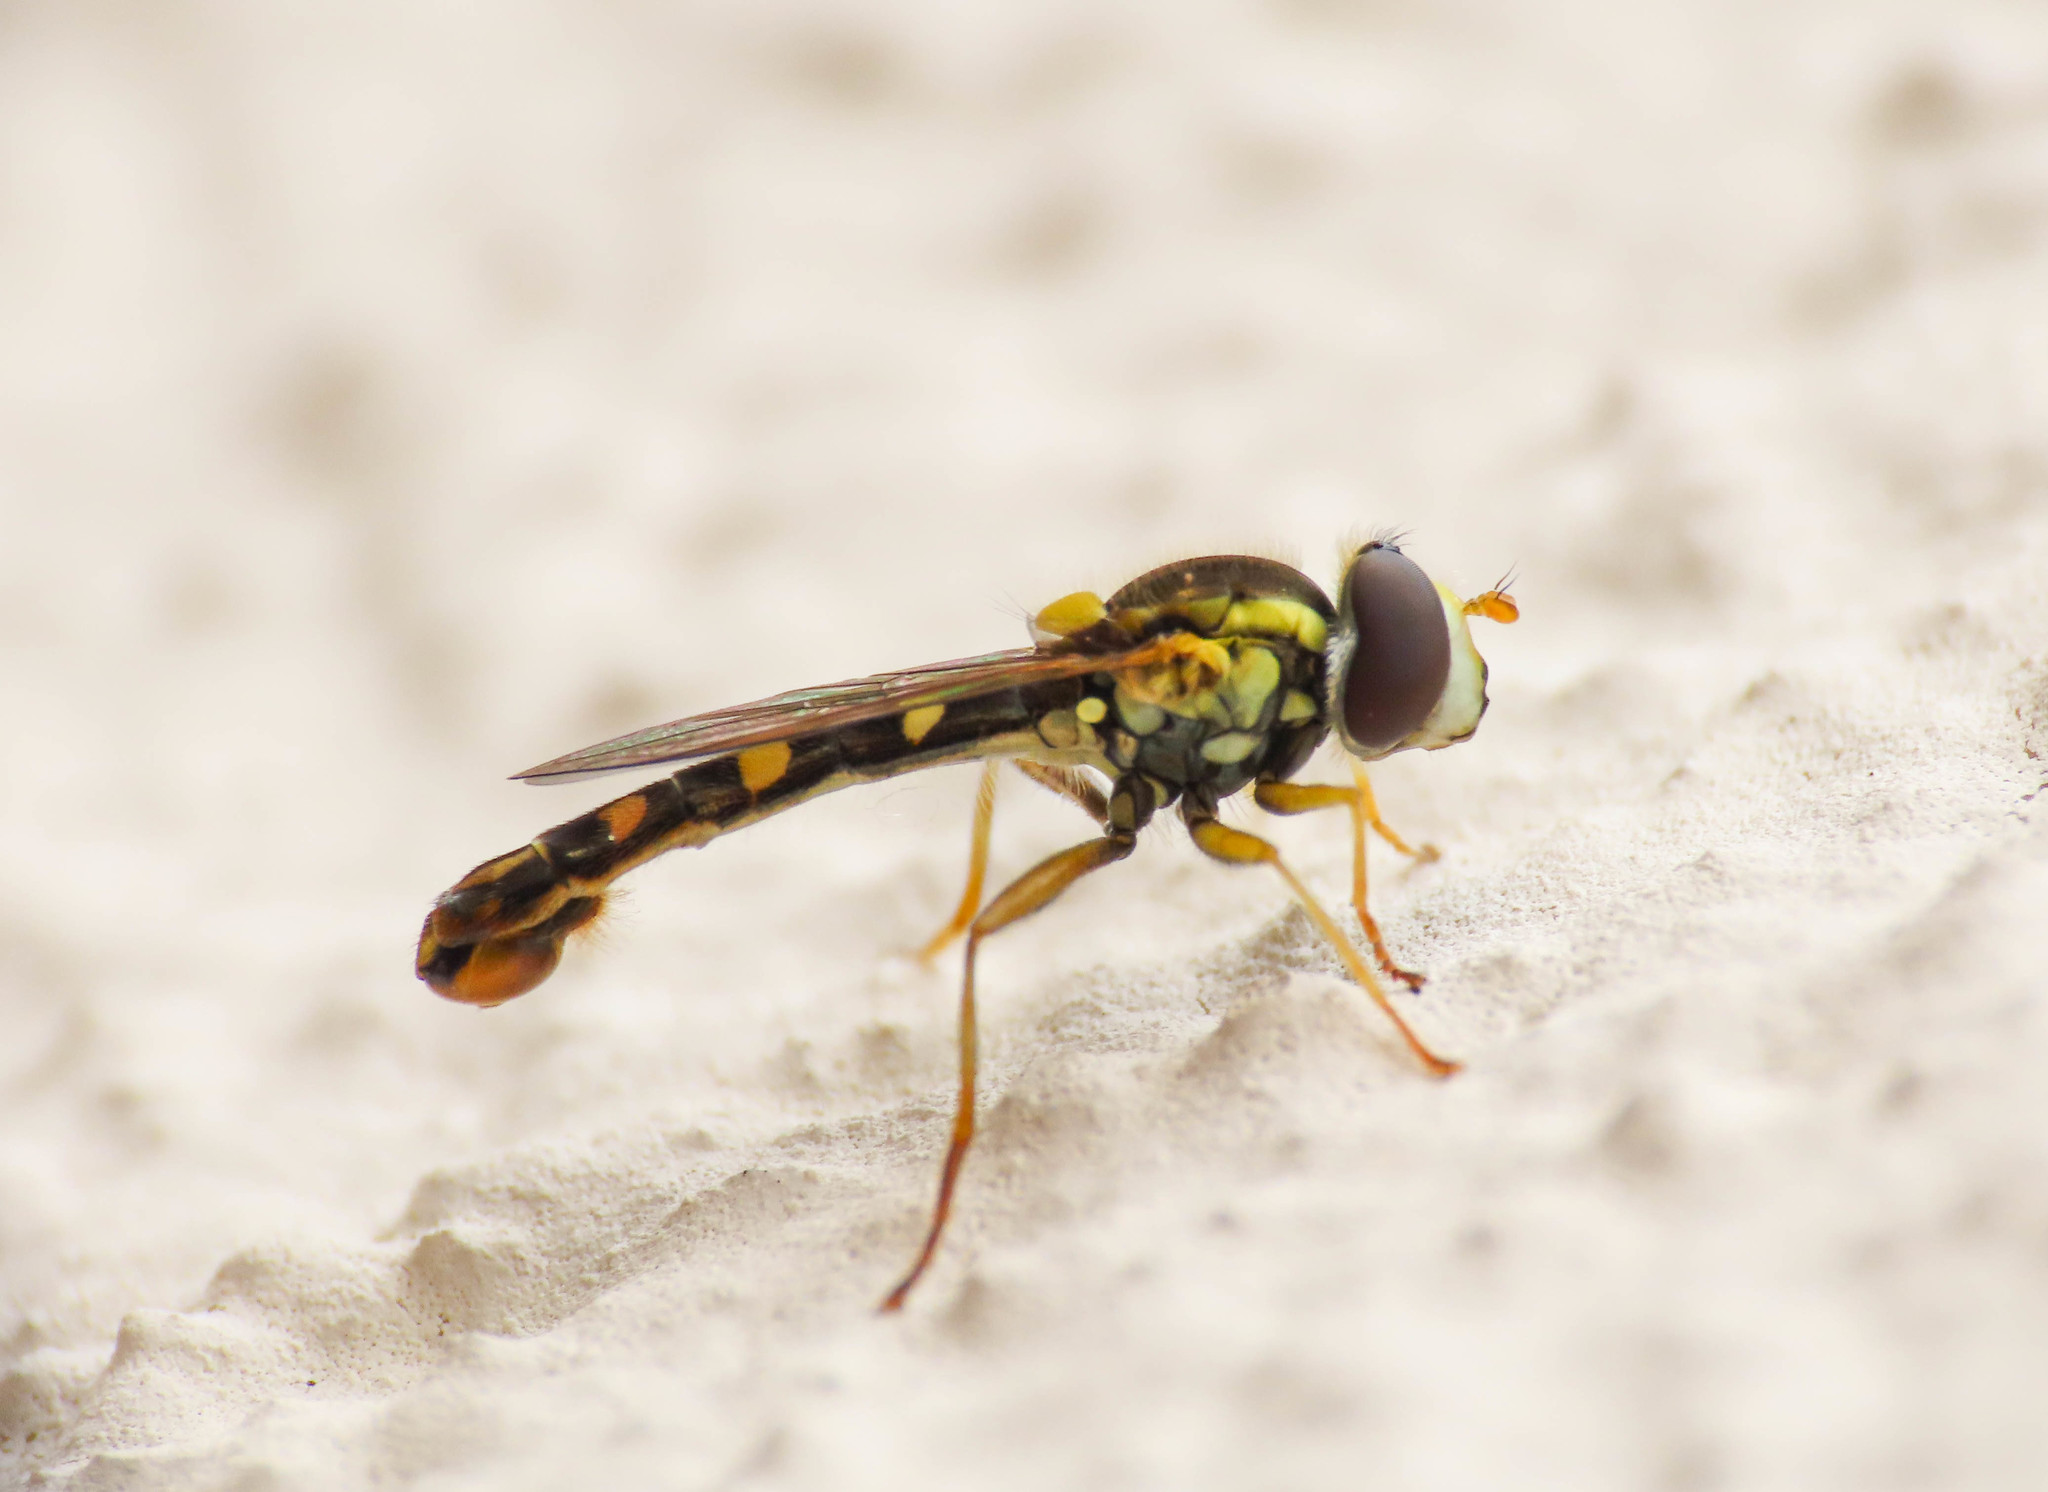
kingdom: Animalia
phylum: Arthropoda
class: Insecta
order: Diptera
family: Syrphidae
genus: Sphaerophoria
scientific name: Sphaerophoria scripta
